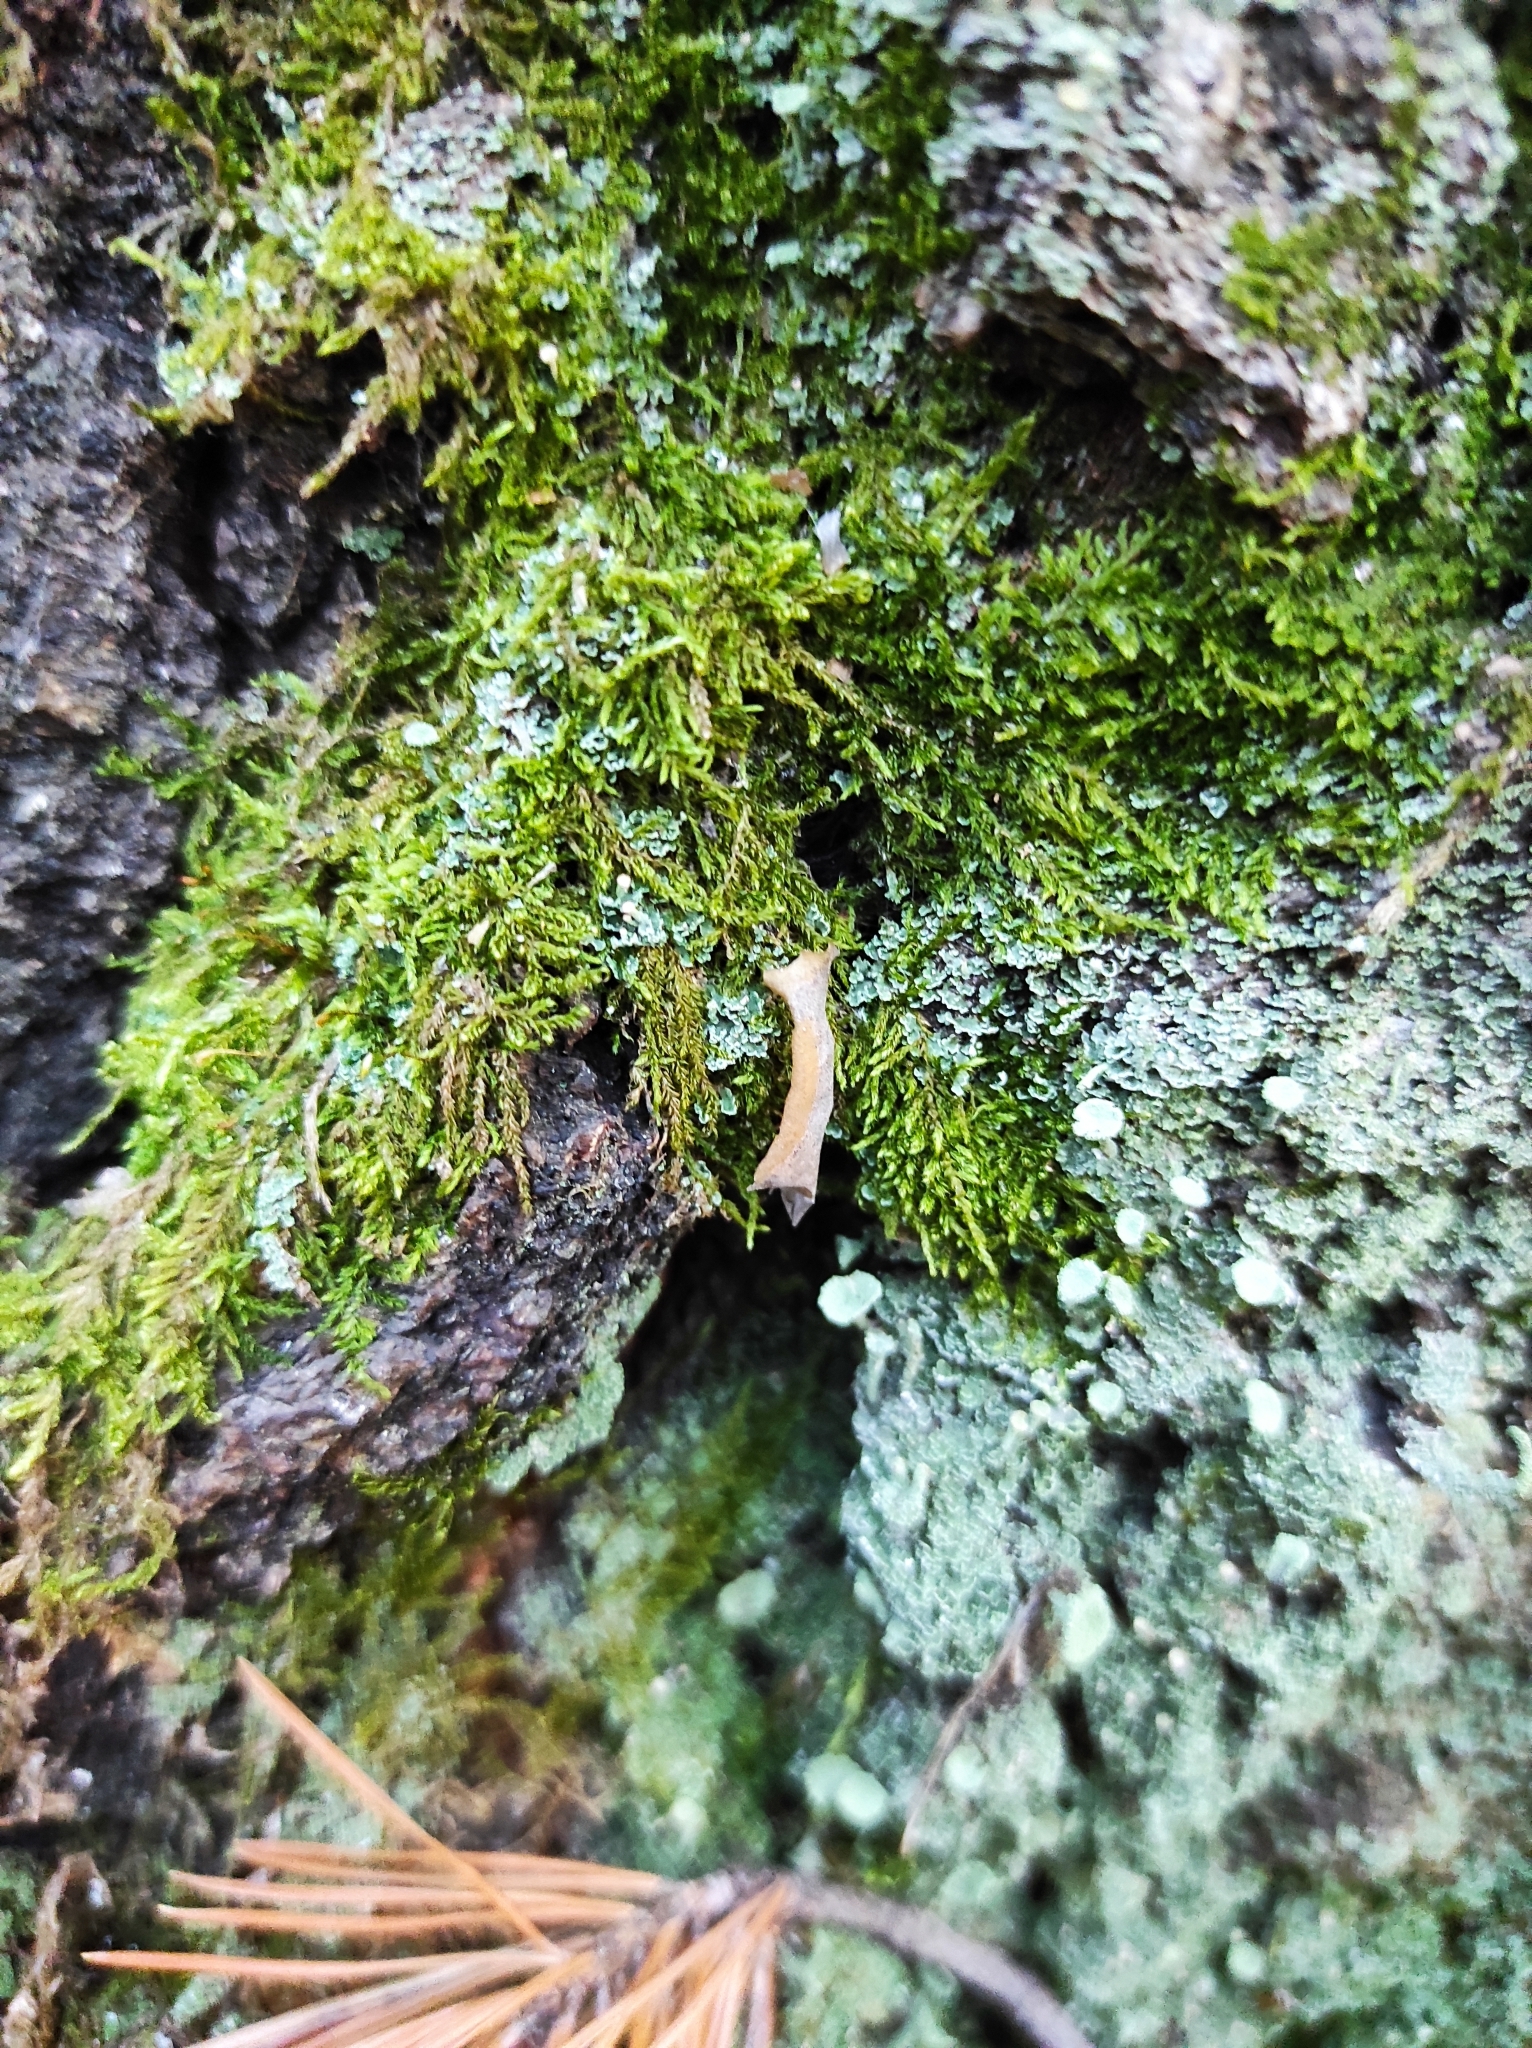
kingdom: Plantae
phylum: Tracheophyta
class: Pinopsida
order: Pinales
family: Pinaceae
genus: Pinus
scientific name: Pinus sylvestris
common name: Scots pine
